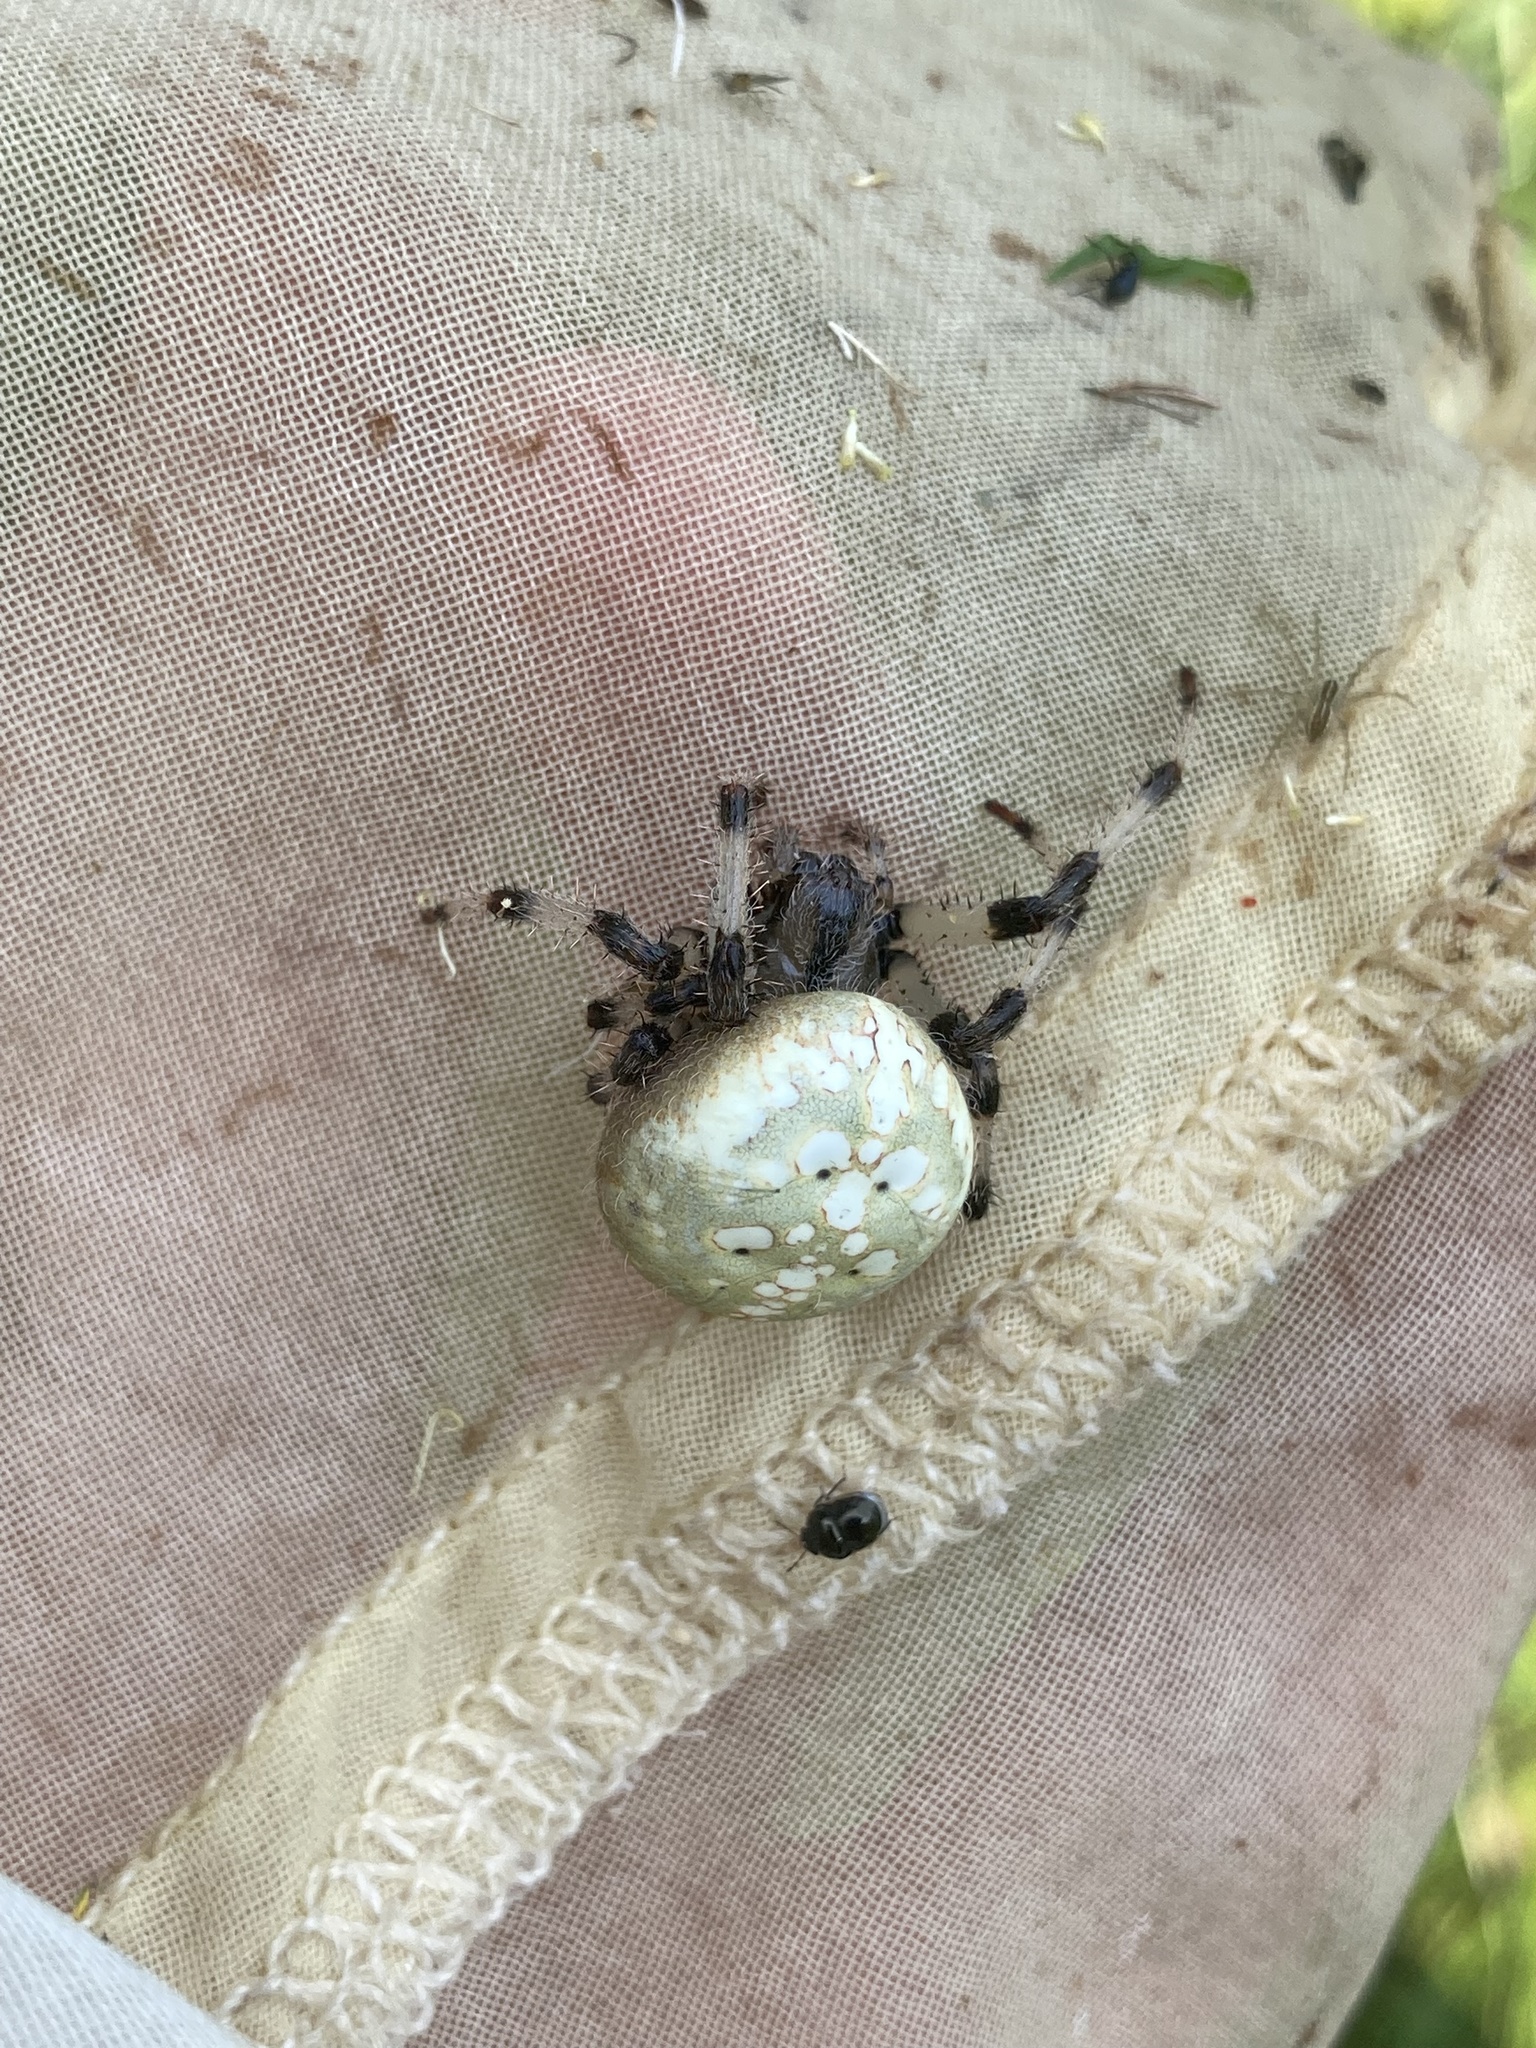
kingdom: Animalia
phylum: Arthropoda
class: Arachnida
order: Araneae
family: Araneidae
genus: Araneus
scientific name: Araneus trifolium
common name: Shamrock orbweaver
